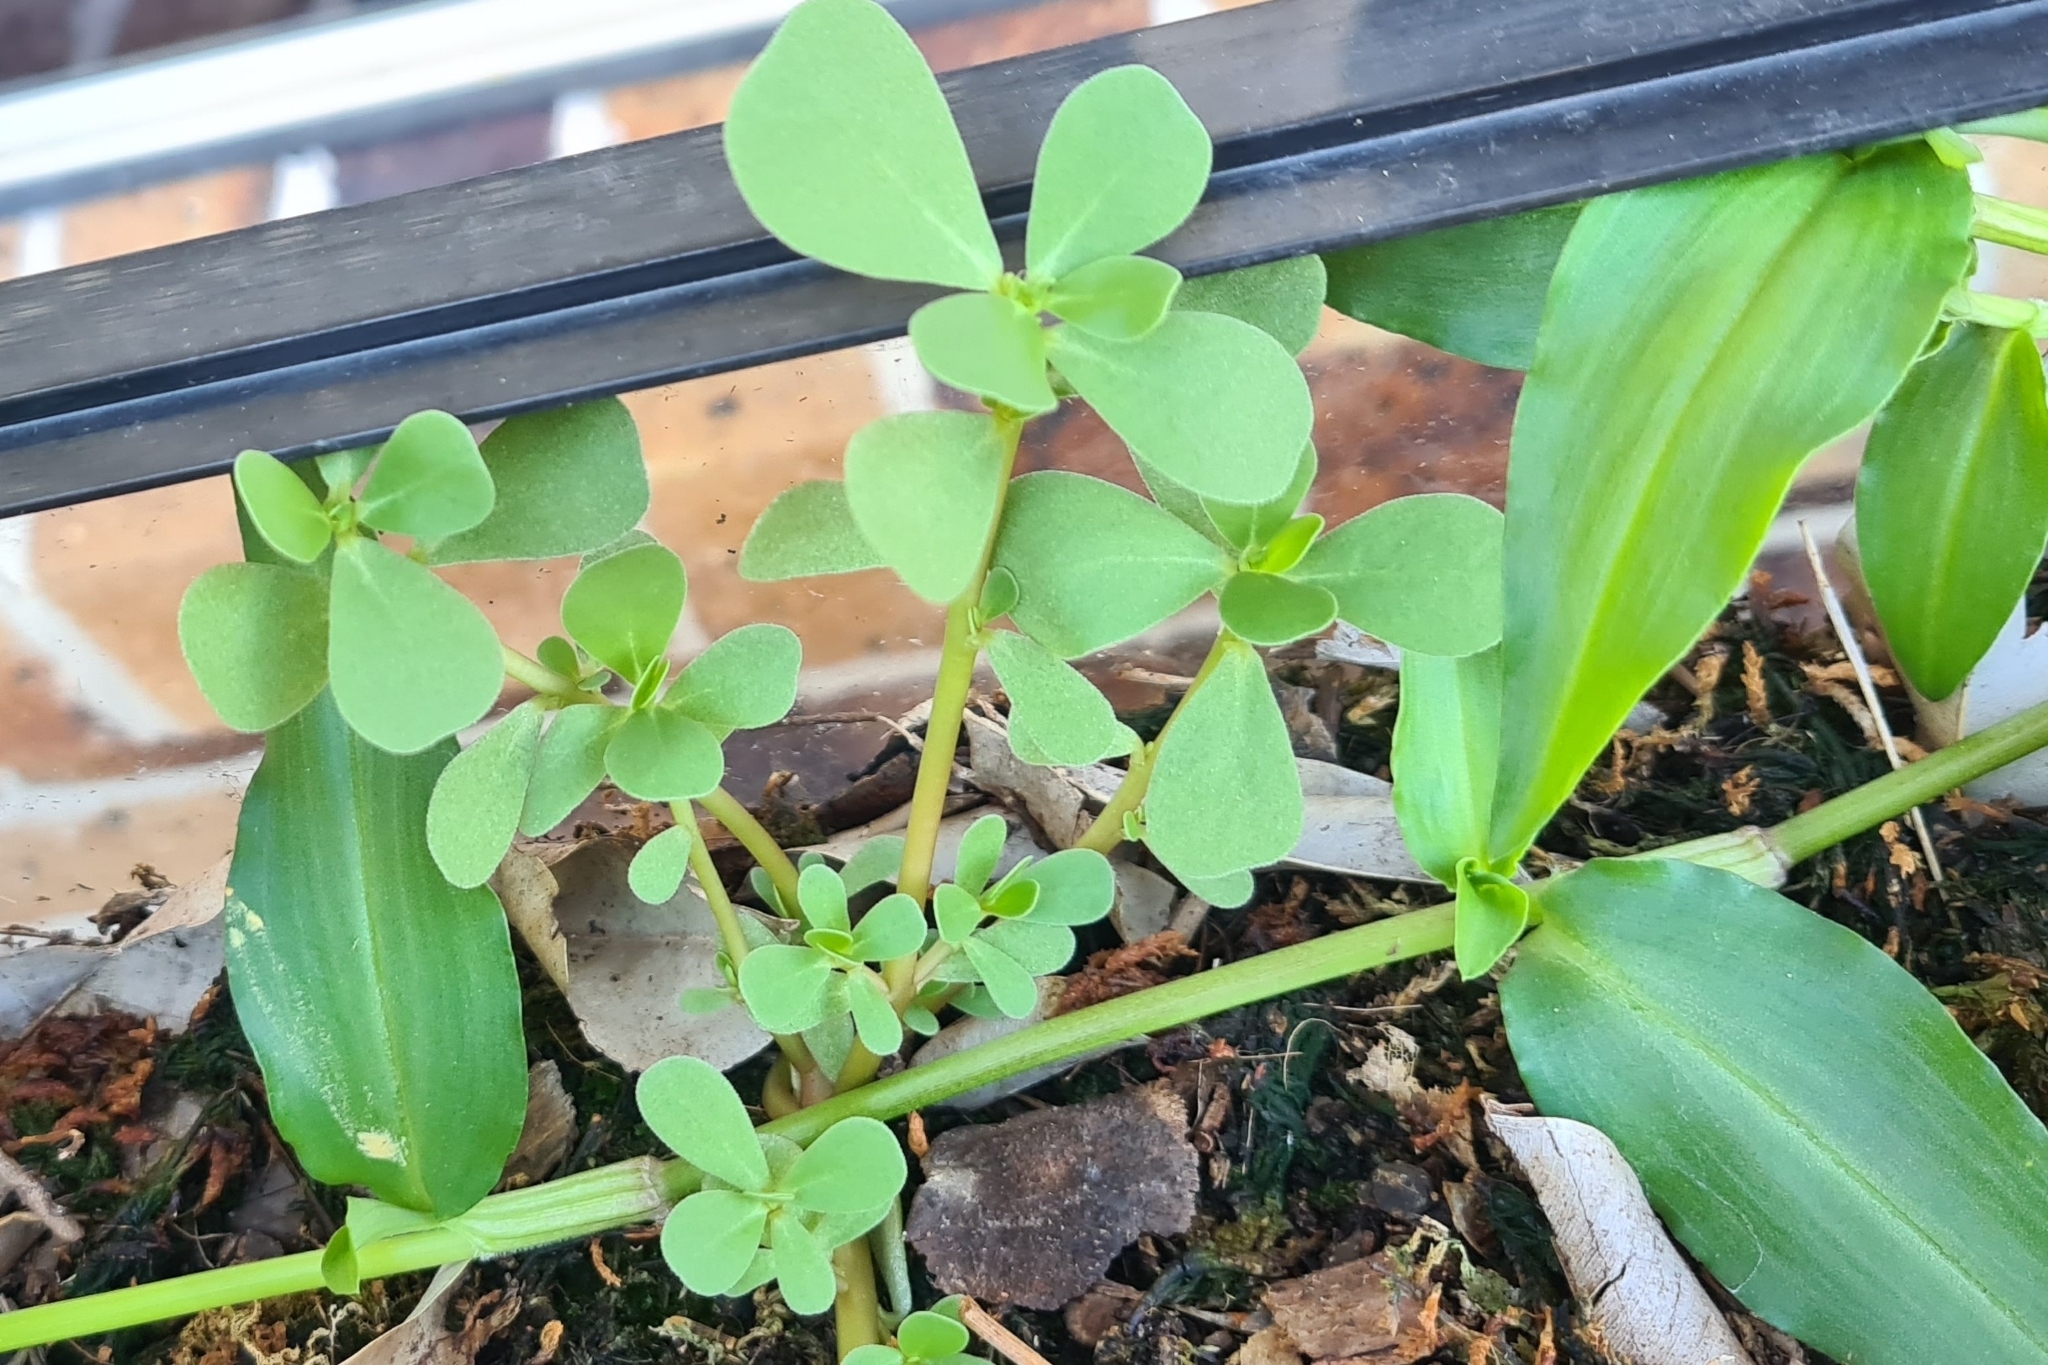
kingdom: Plantae
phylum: Tracheophyta
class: Magnoliopsida
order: Caryophyllales
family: Portulacaceae
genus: Portulaca
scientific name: Portulaca oleracea
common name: Common purslane
